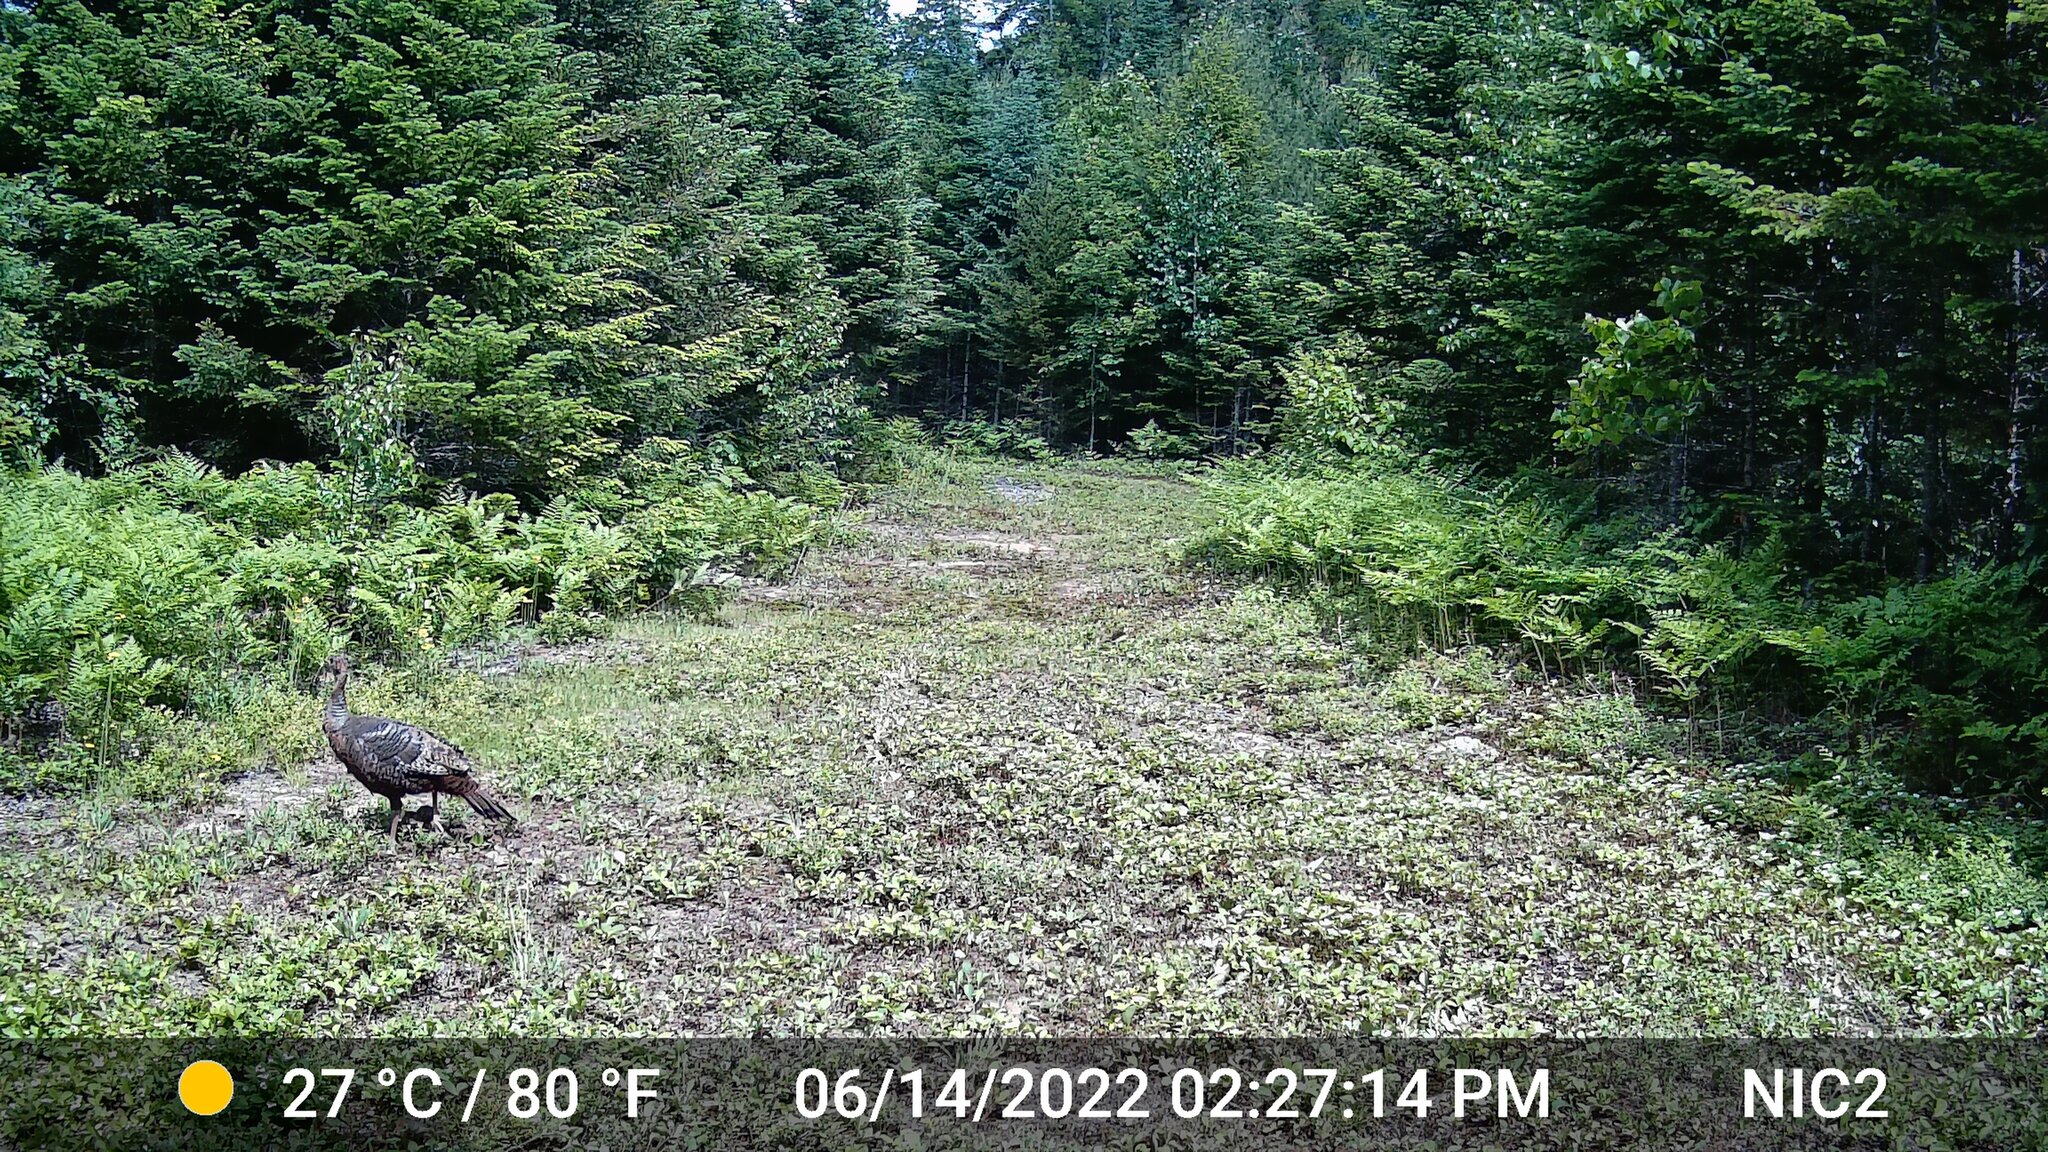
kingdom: Animalia
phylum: Chordata
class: Aves
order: Galliformes
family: Phasianidae
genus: Meleagris
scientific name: Meleagris gallopavo
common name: Wild turkey
